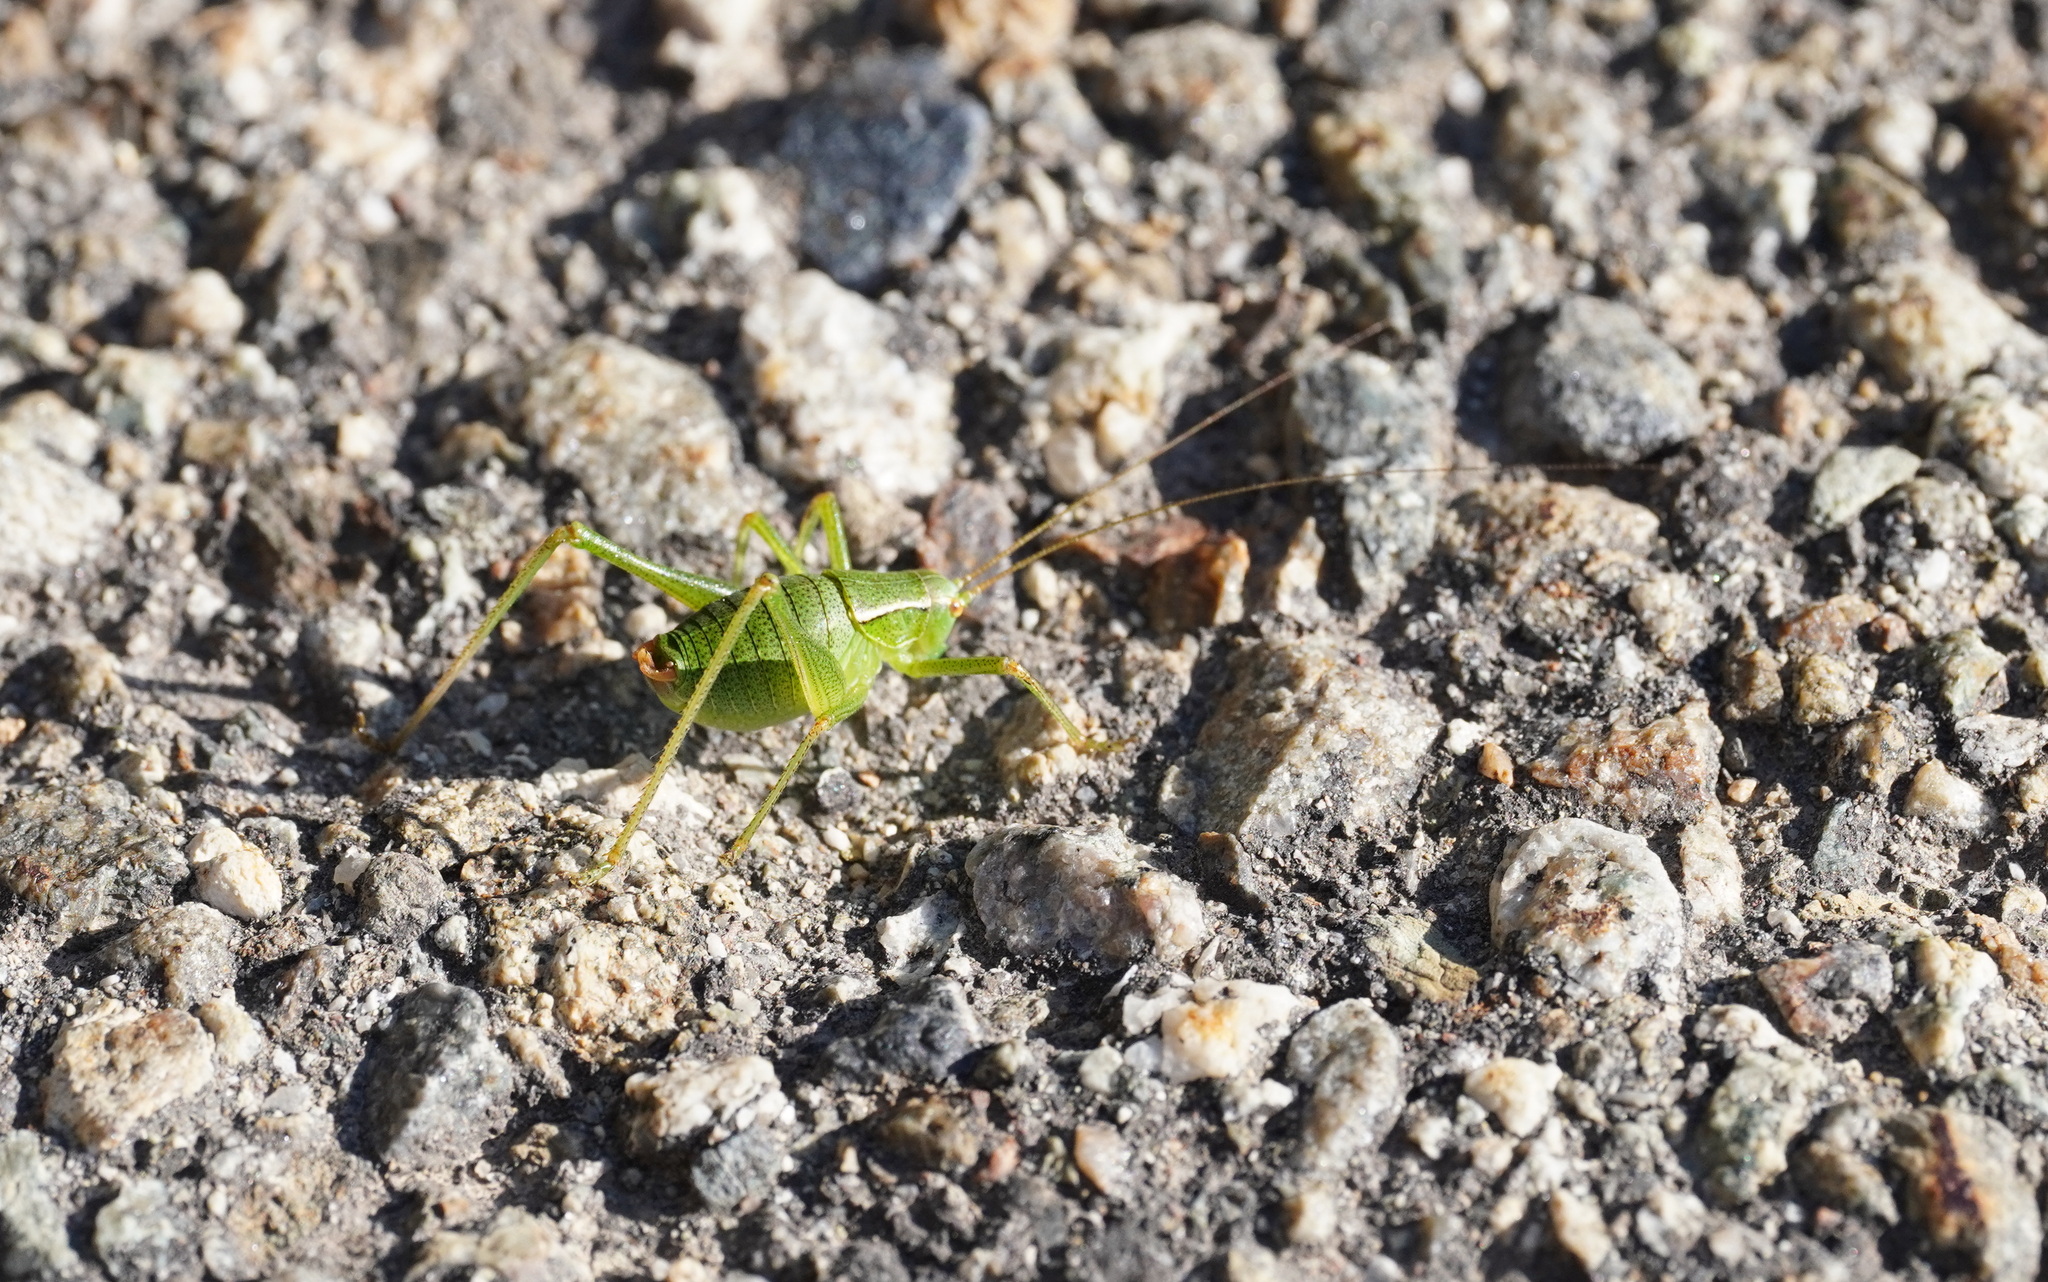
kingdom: Animalia
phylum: Arthropoda
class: Insecta
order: Orthoptera
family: Tettigoniidae
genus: Metaplastes
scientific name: Metaplastes pulchripennis
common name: Italian ornate bush-cricket
